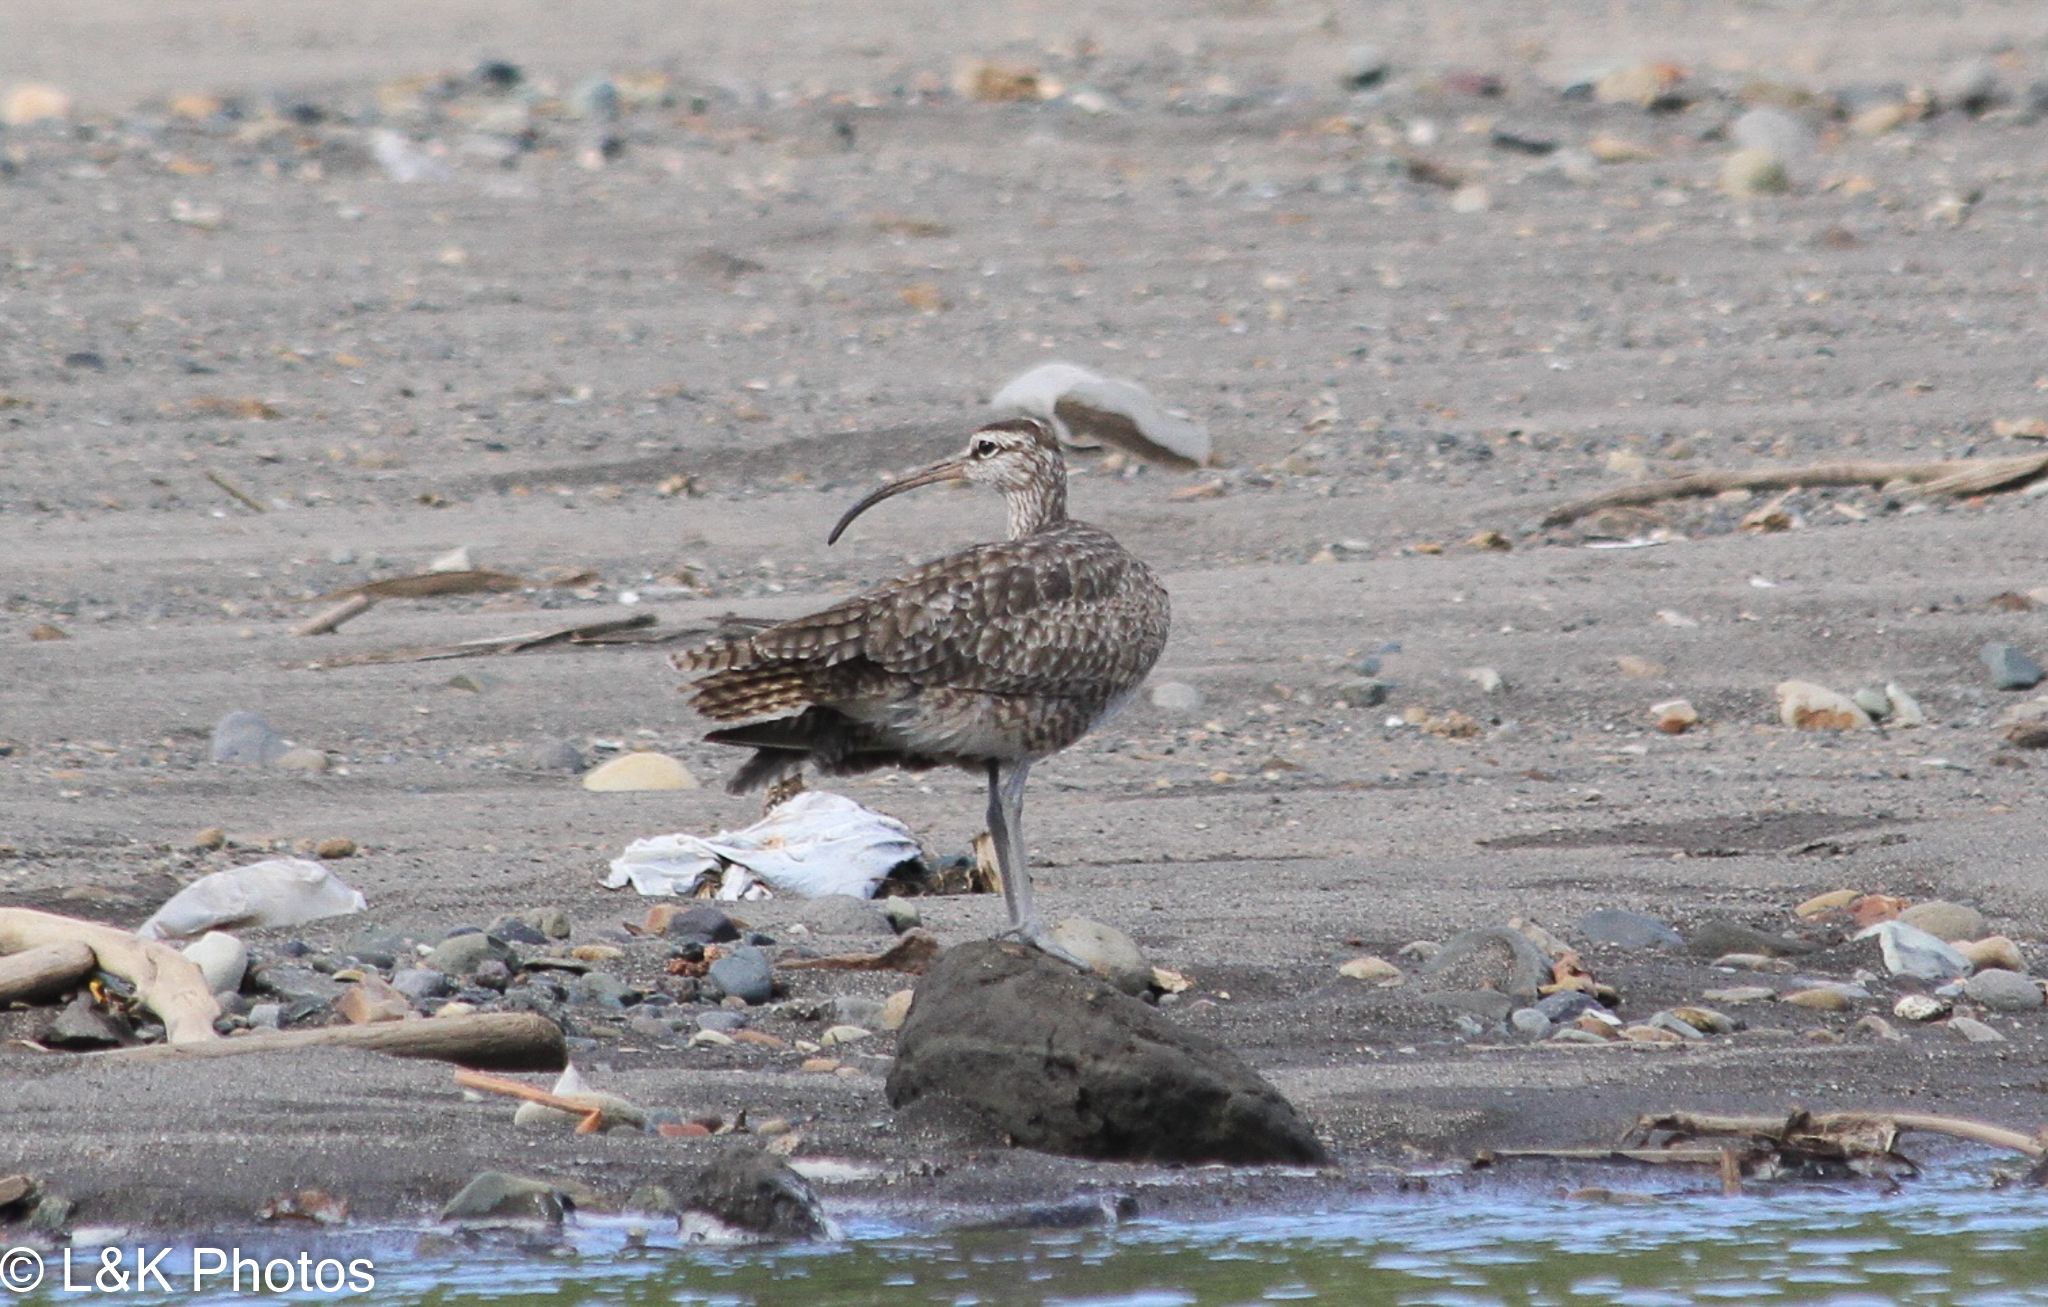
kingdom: Animalia
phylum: Chordata
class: Aves
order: Charadriiformes
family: Scolopacidae
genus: Numenius
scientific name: Numenius phaeopus
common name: Whimbrel
